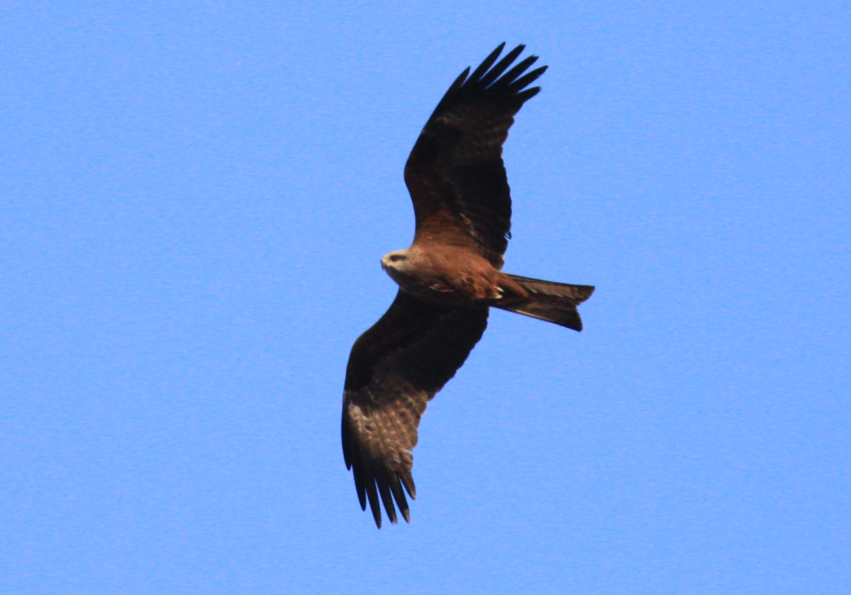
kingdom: Animalia
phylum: Chordata
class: Aves
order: Accipitriformes
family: Accipitridae
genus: Milvus
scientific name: Milvus migrans
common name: Black kite
